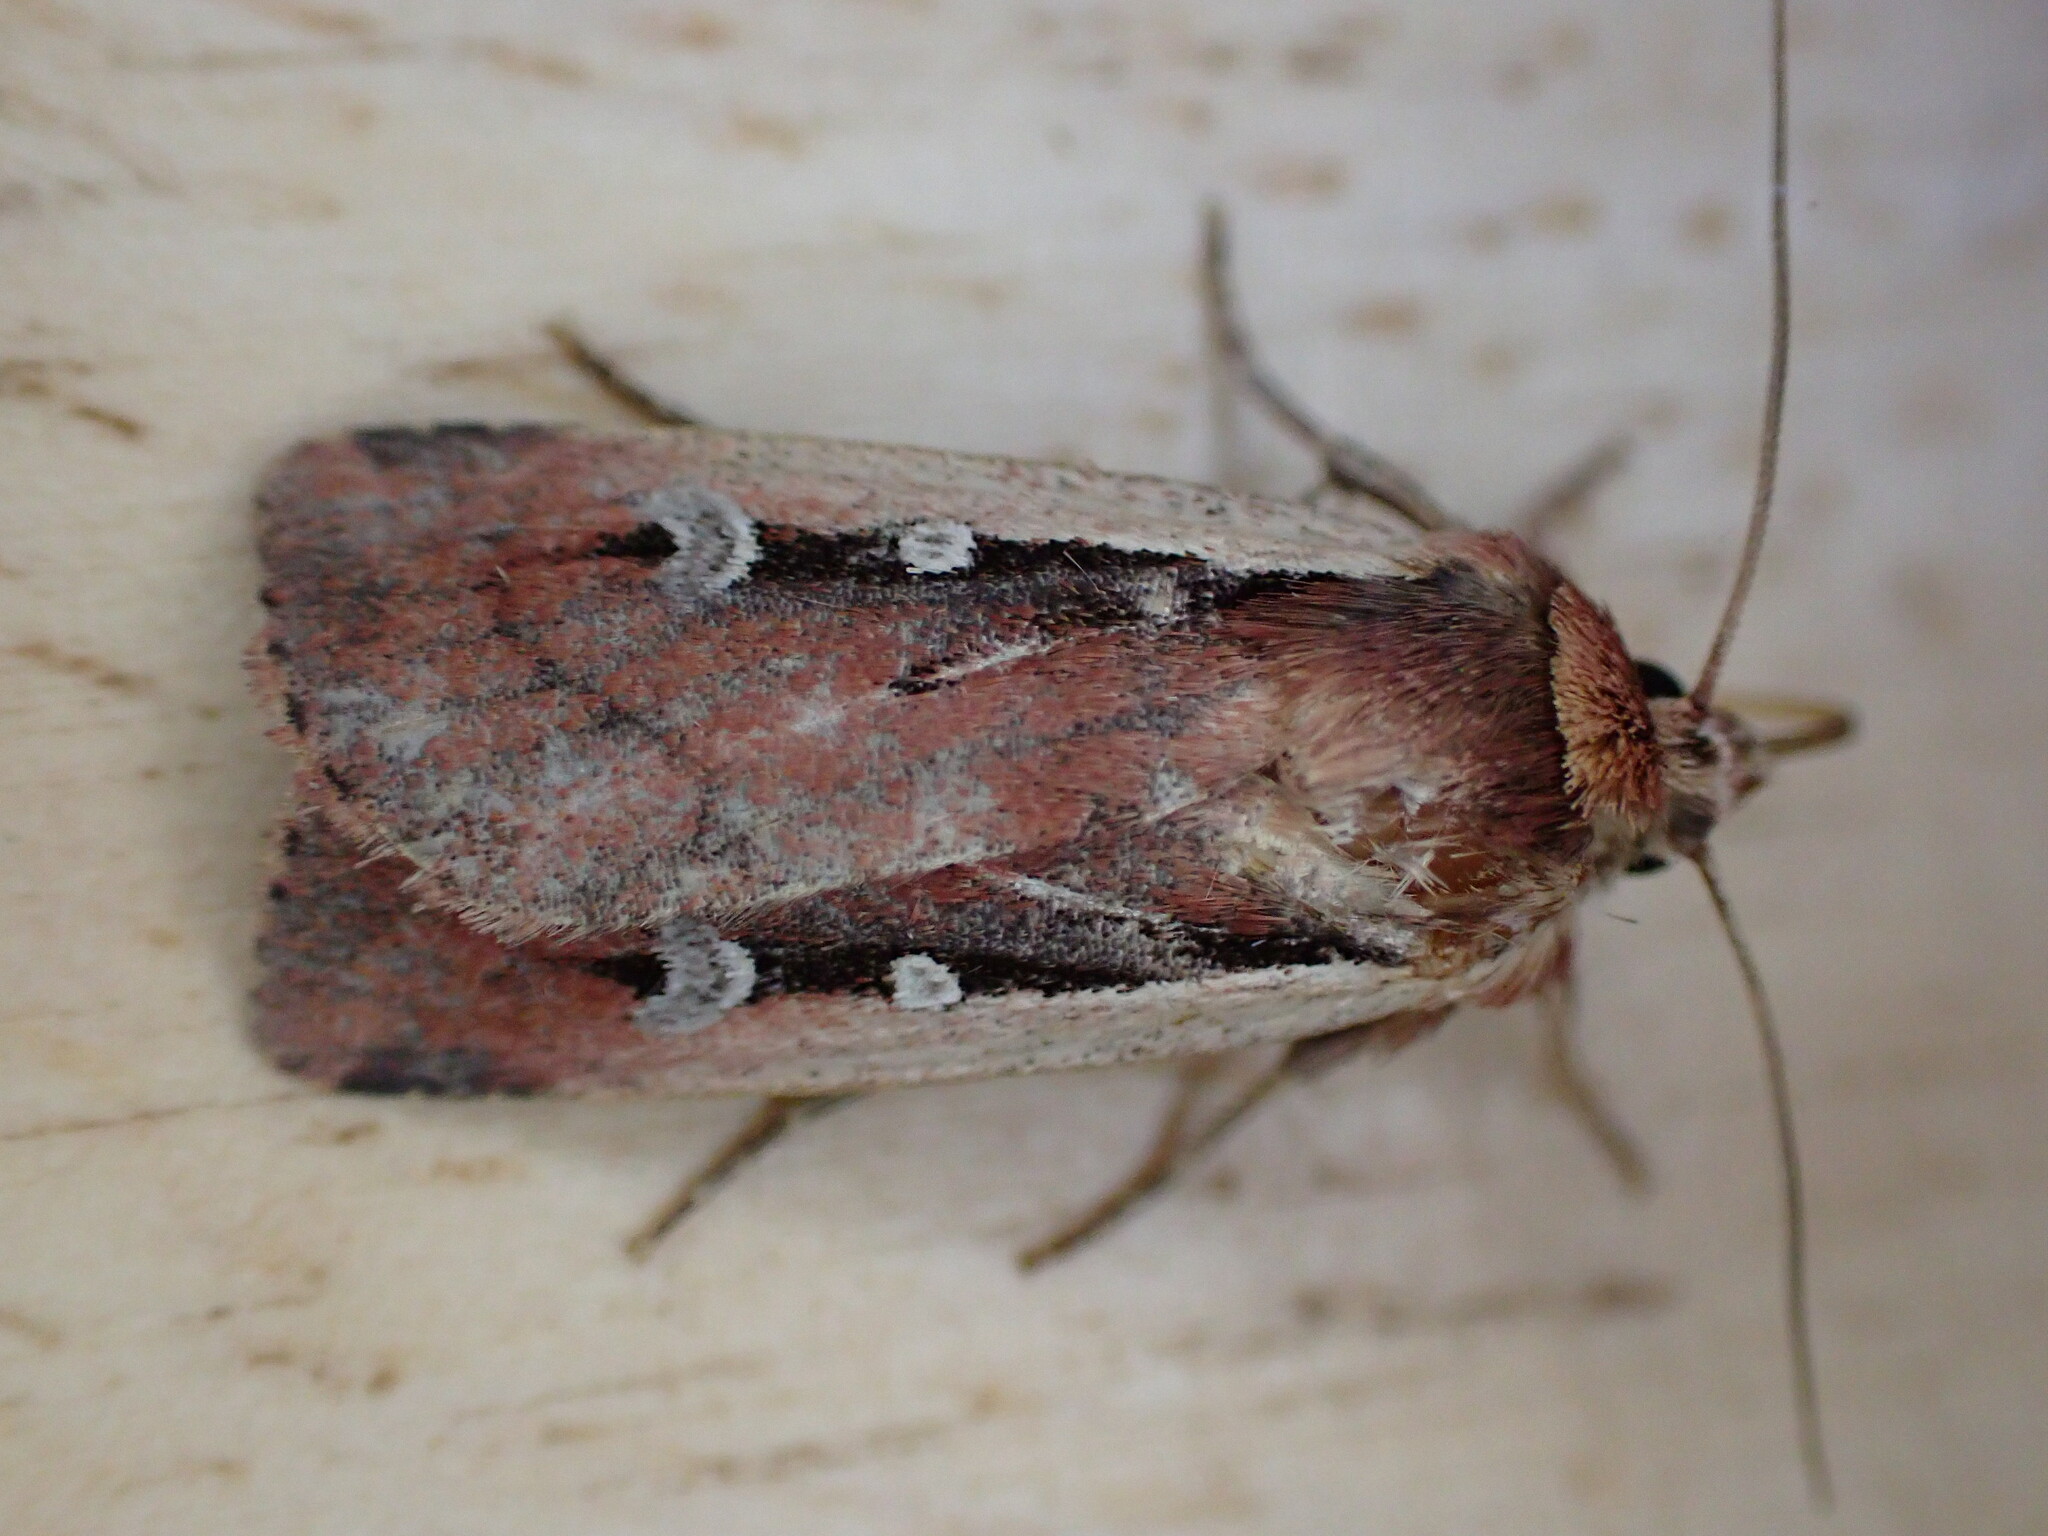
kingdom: Animalia
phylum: Arthropoda
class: Insecta
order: Lepidoptera
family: Noctuidae
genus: Ochropleura
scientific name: Ochropleura plecta
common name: Flame shoulder
